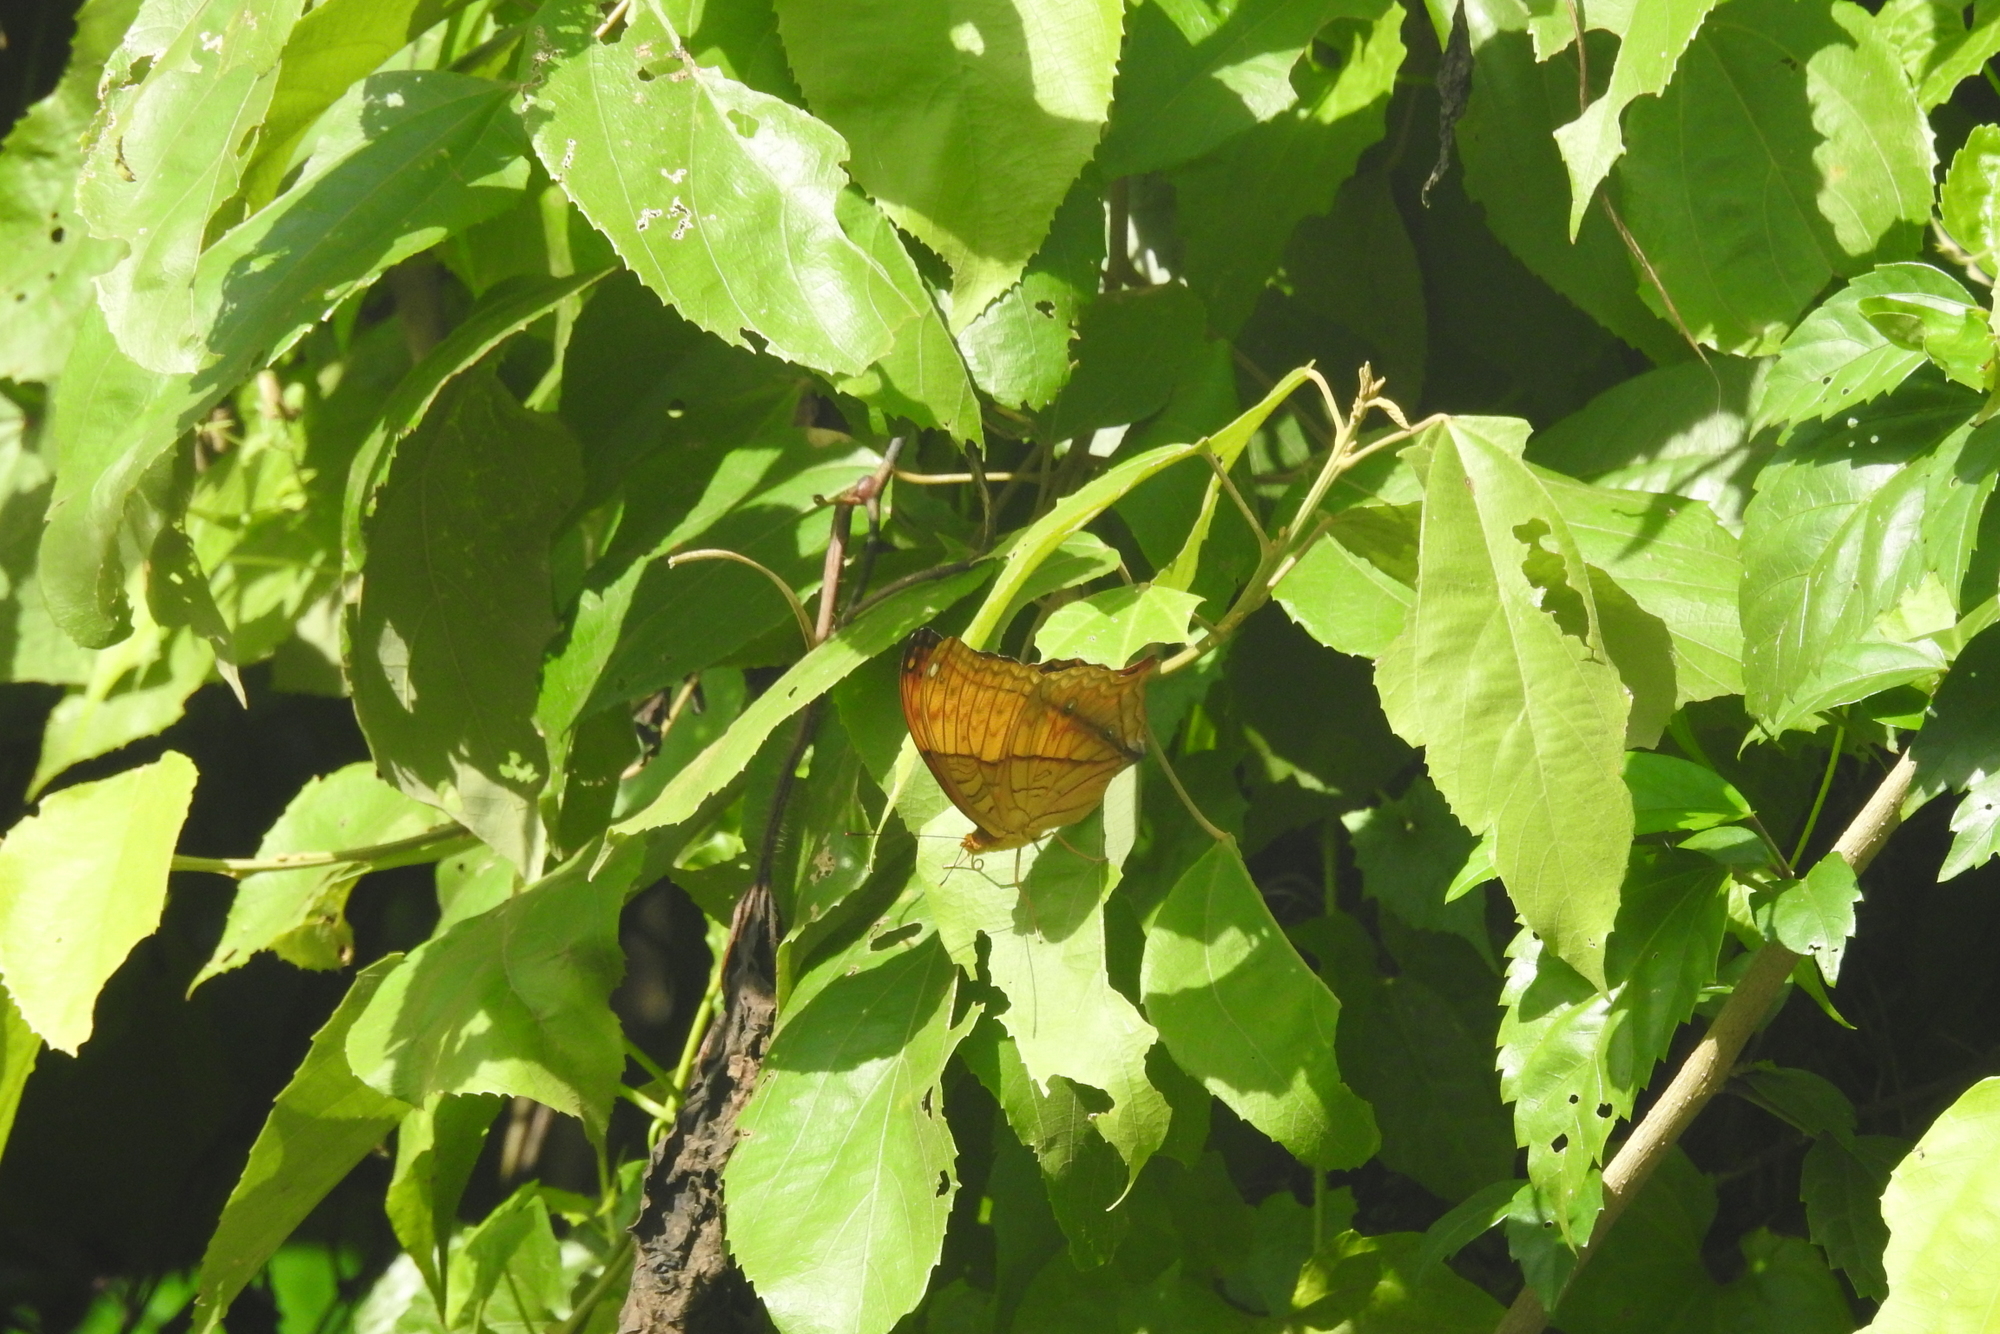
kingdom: Animalia
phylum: Arthropoda
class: Insecta
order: Lepidoptera
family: Nymphalidae
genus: Vindula
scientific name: Vindula erota
